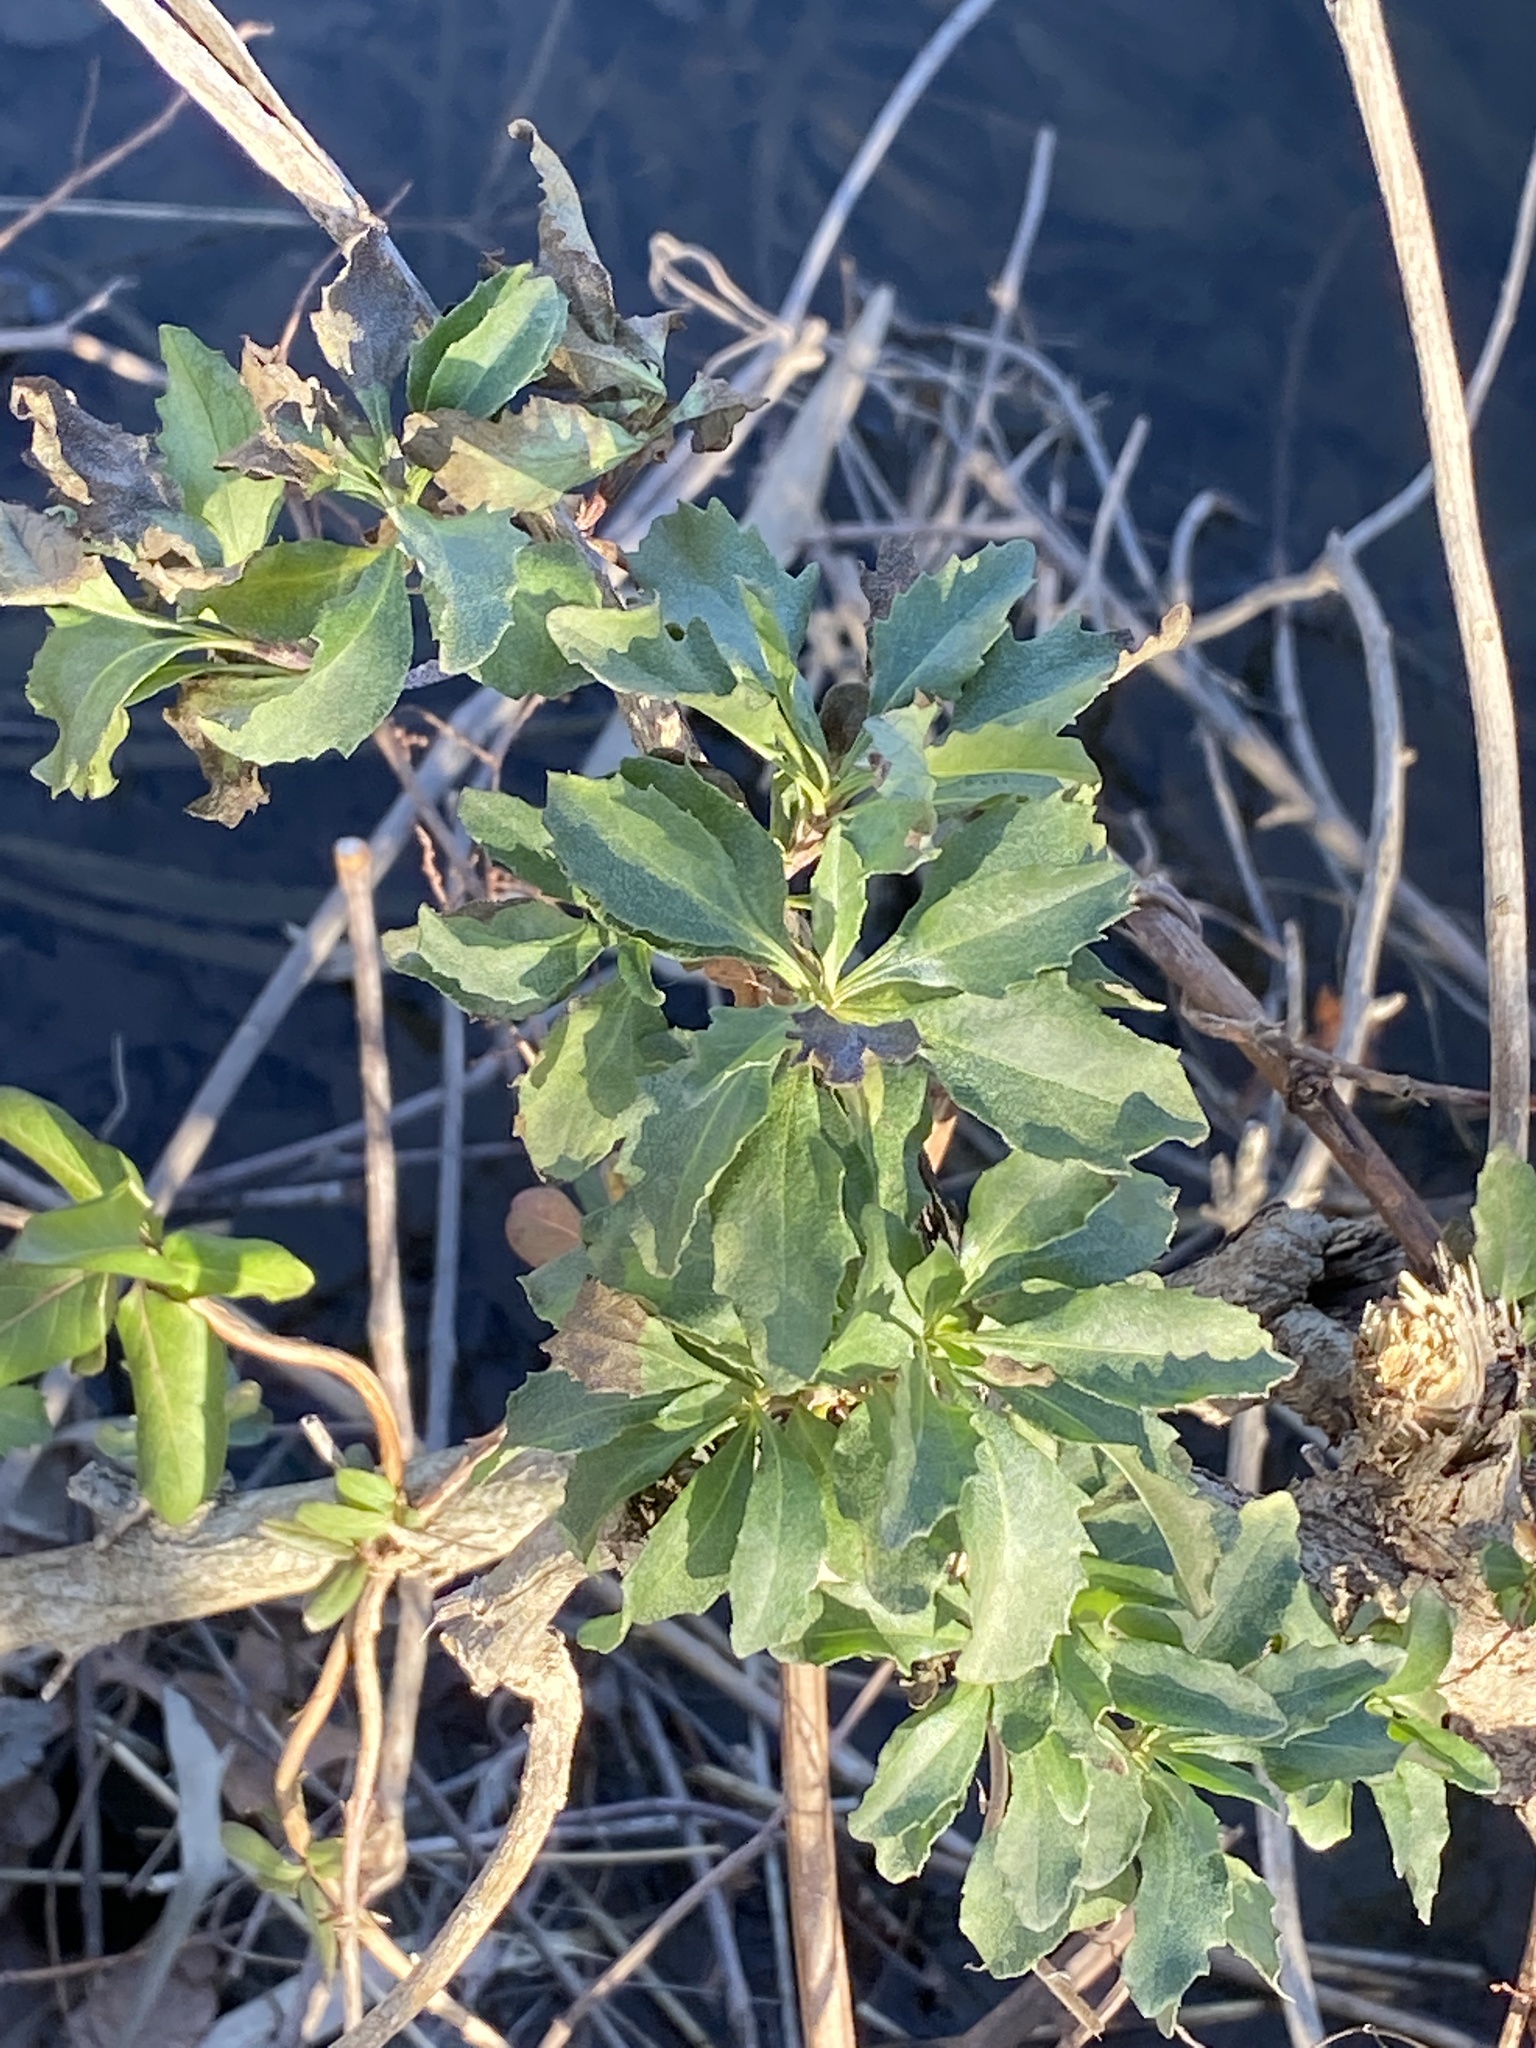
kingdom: Plantae
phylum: Tracheophyta
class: Magnoliopsida
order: Asterales
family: Asteraceae
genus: Baccharis
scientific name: Baccharis halimifolia
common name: Eastern baccharis
